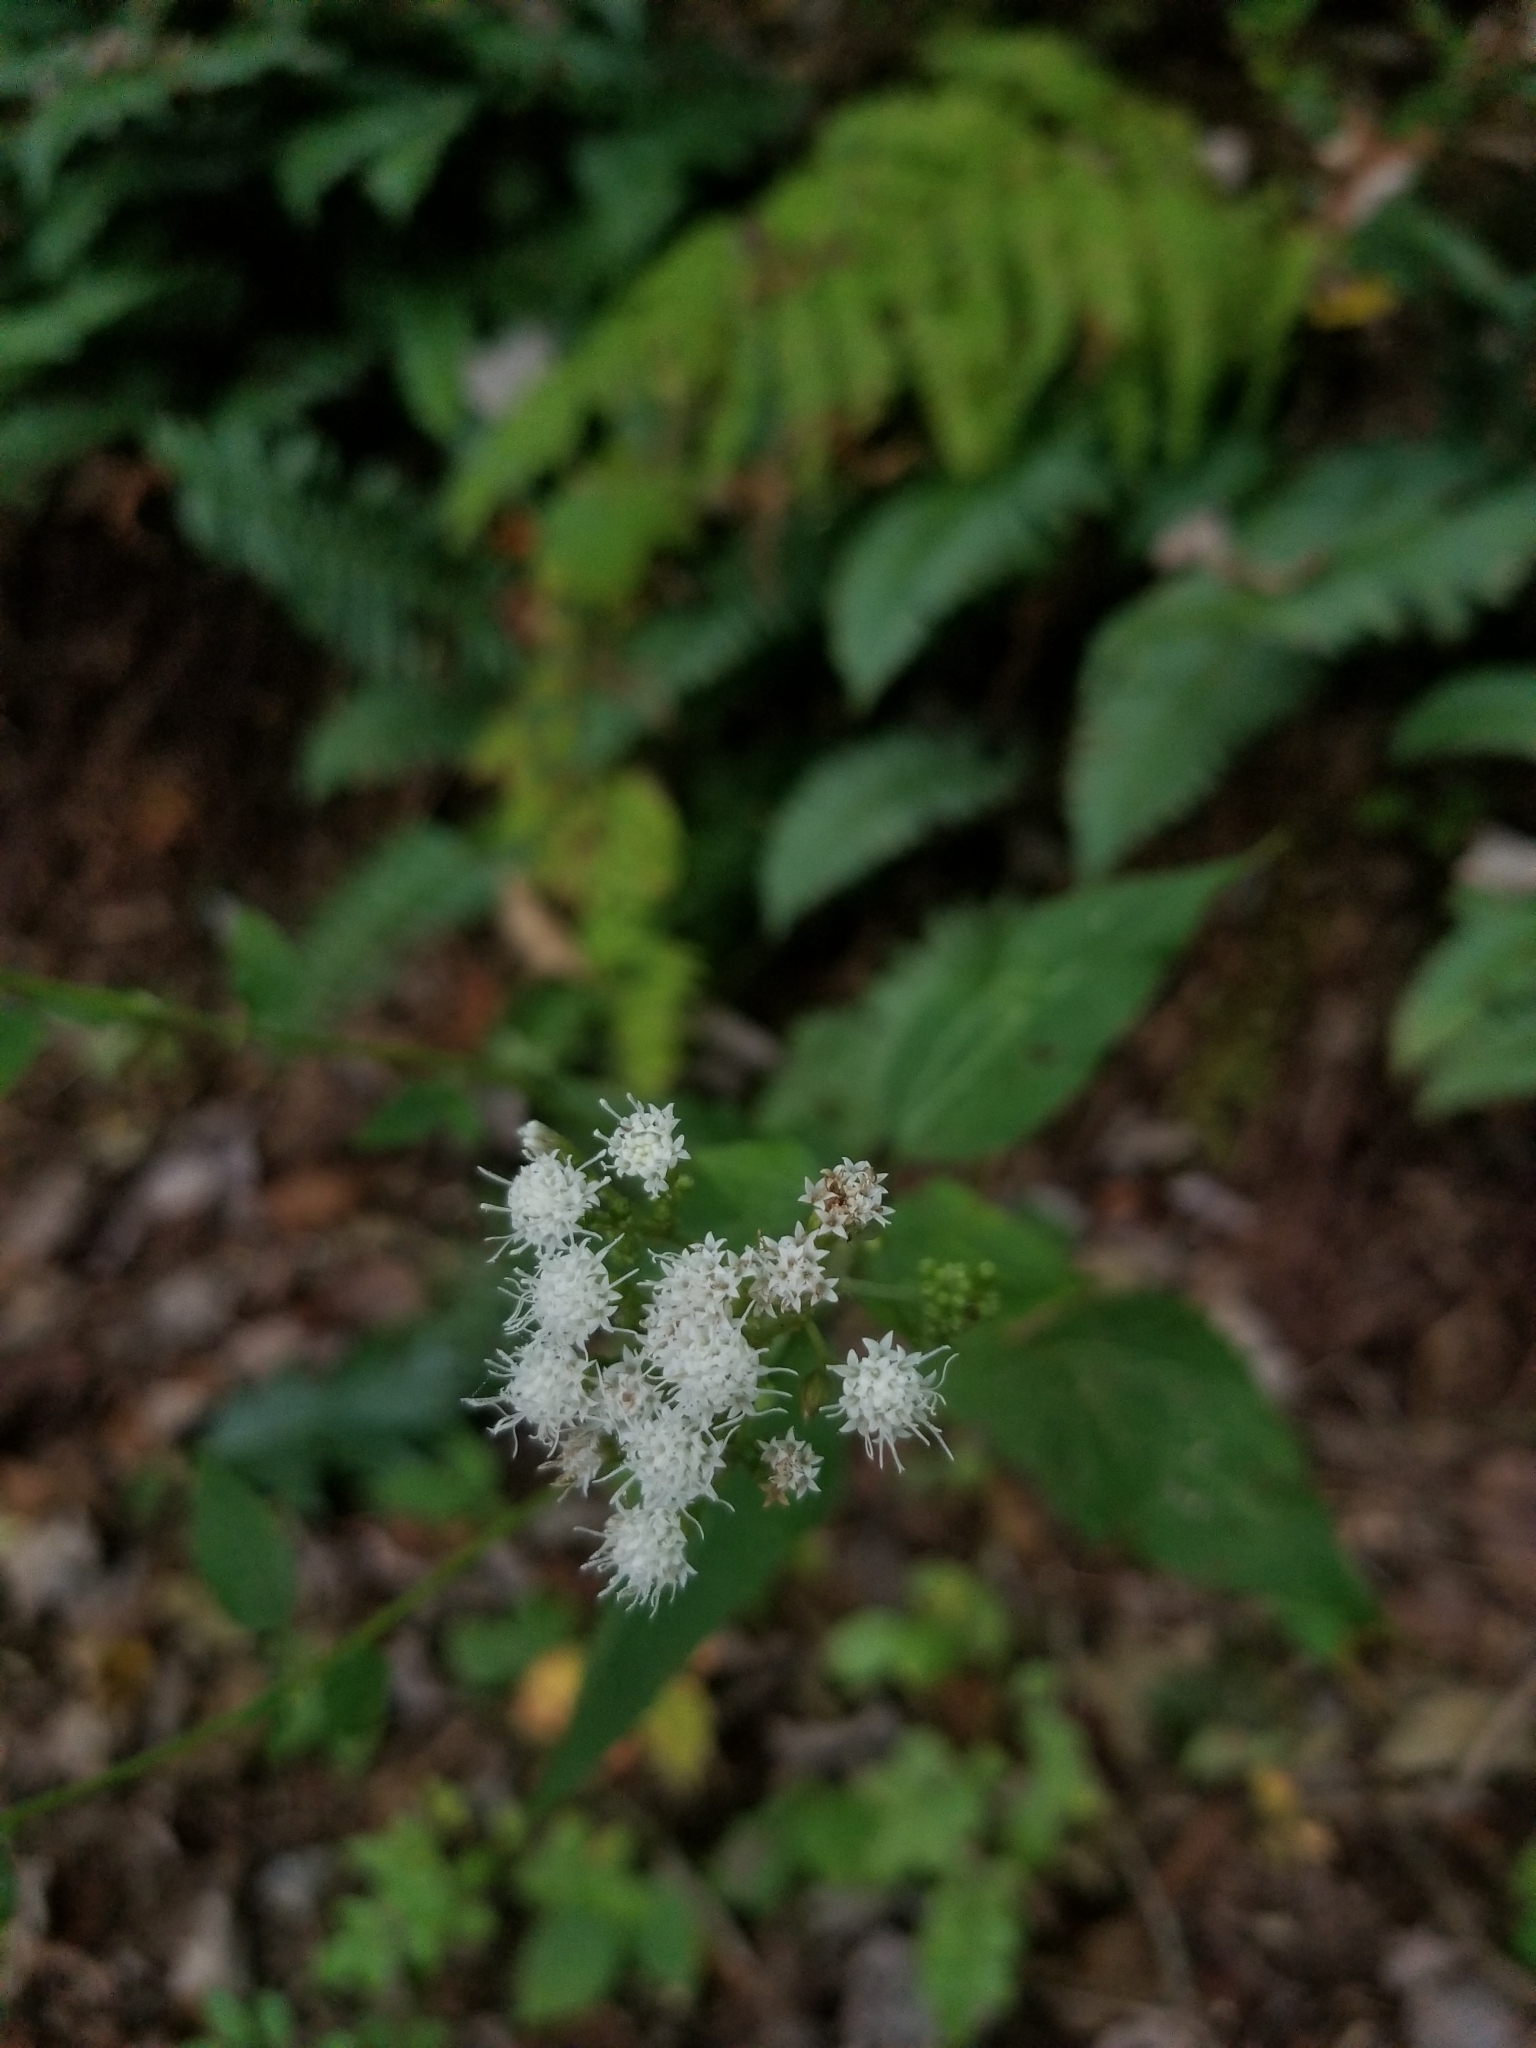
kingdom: Plantae
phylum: Tracheophyta
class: Magnoliopsida
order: Asterales
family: Asteraceae
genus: Ageratina
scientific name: Ageratina altissima
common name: White snakeroot
